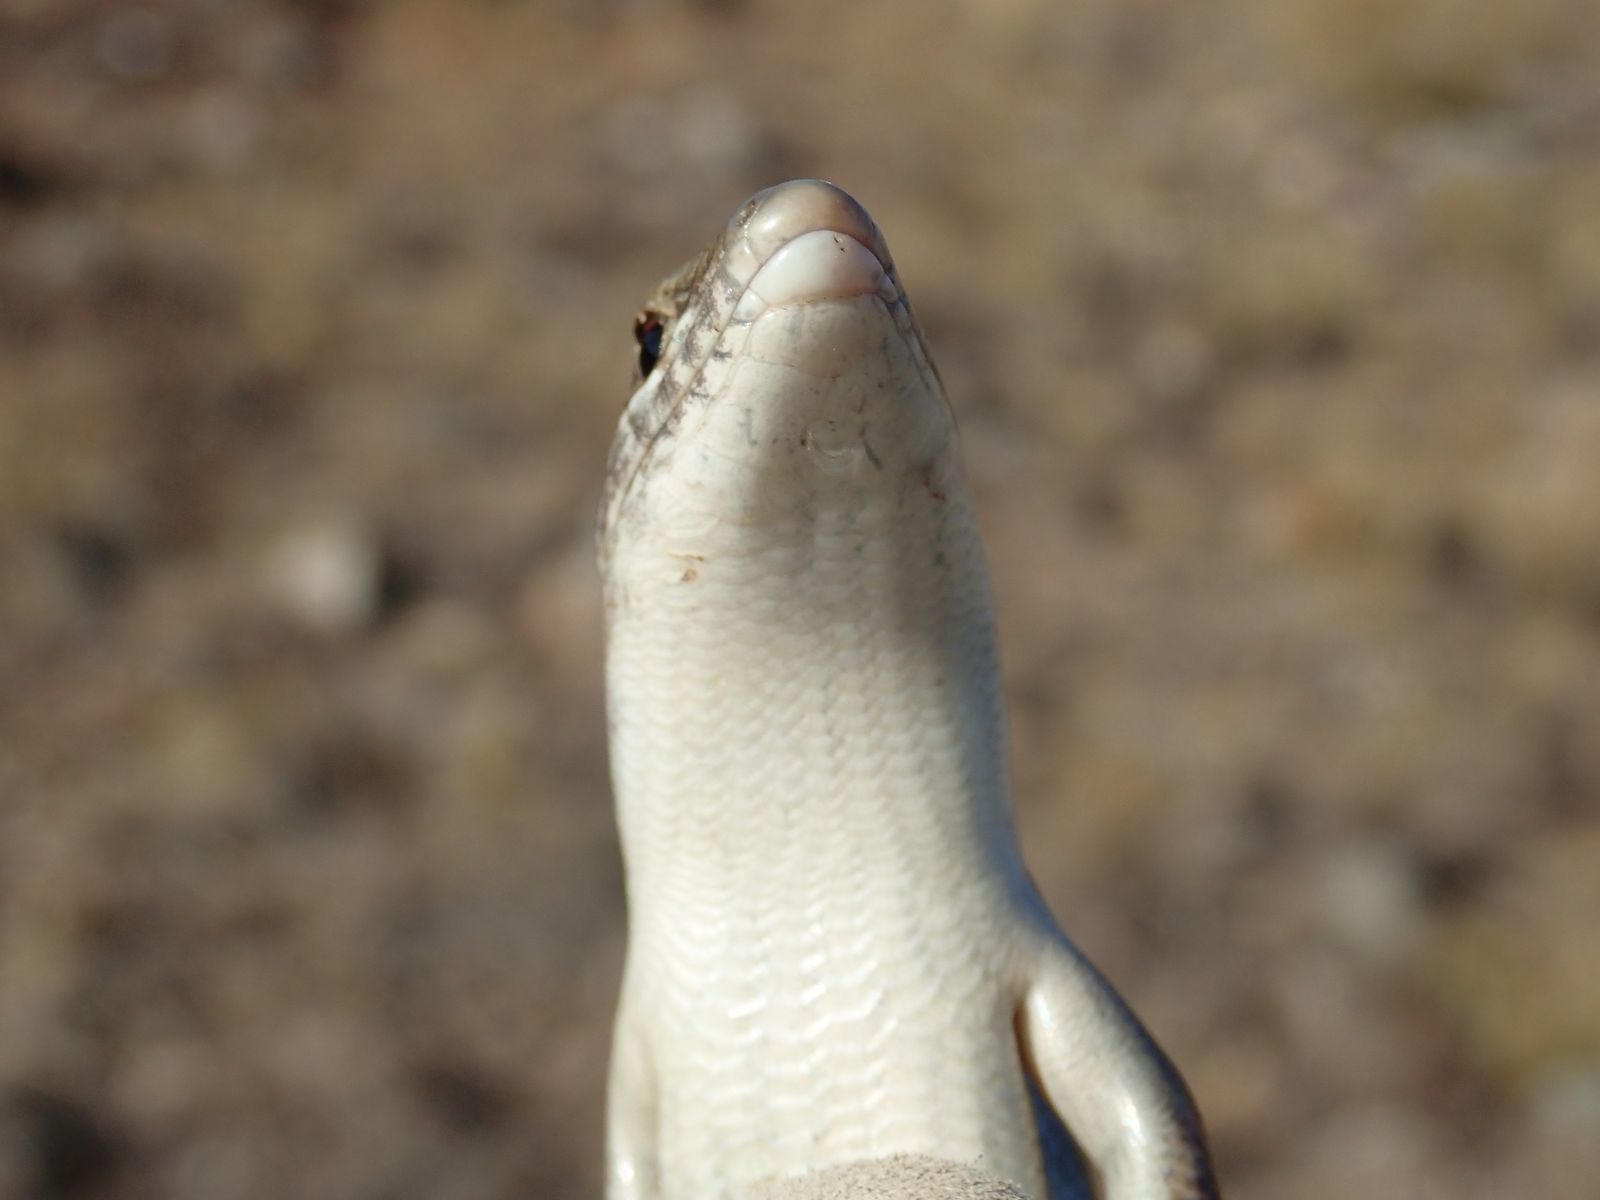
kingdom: Animalia
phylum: Chordata
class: Squamata
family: Scincidae
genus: Ctenotus
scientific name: Ctenotus robustus
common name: Robust ctenotus
